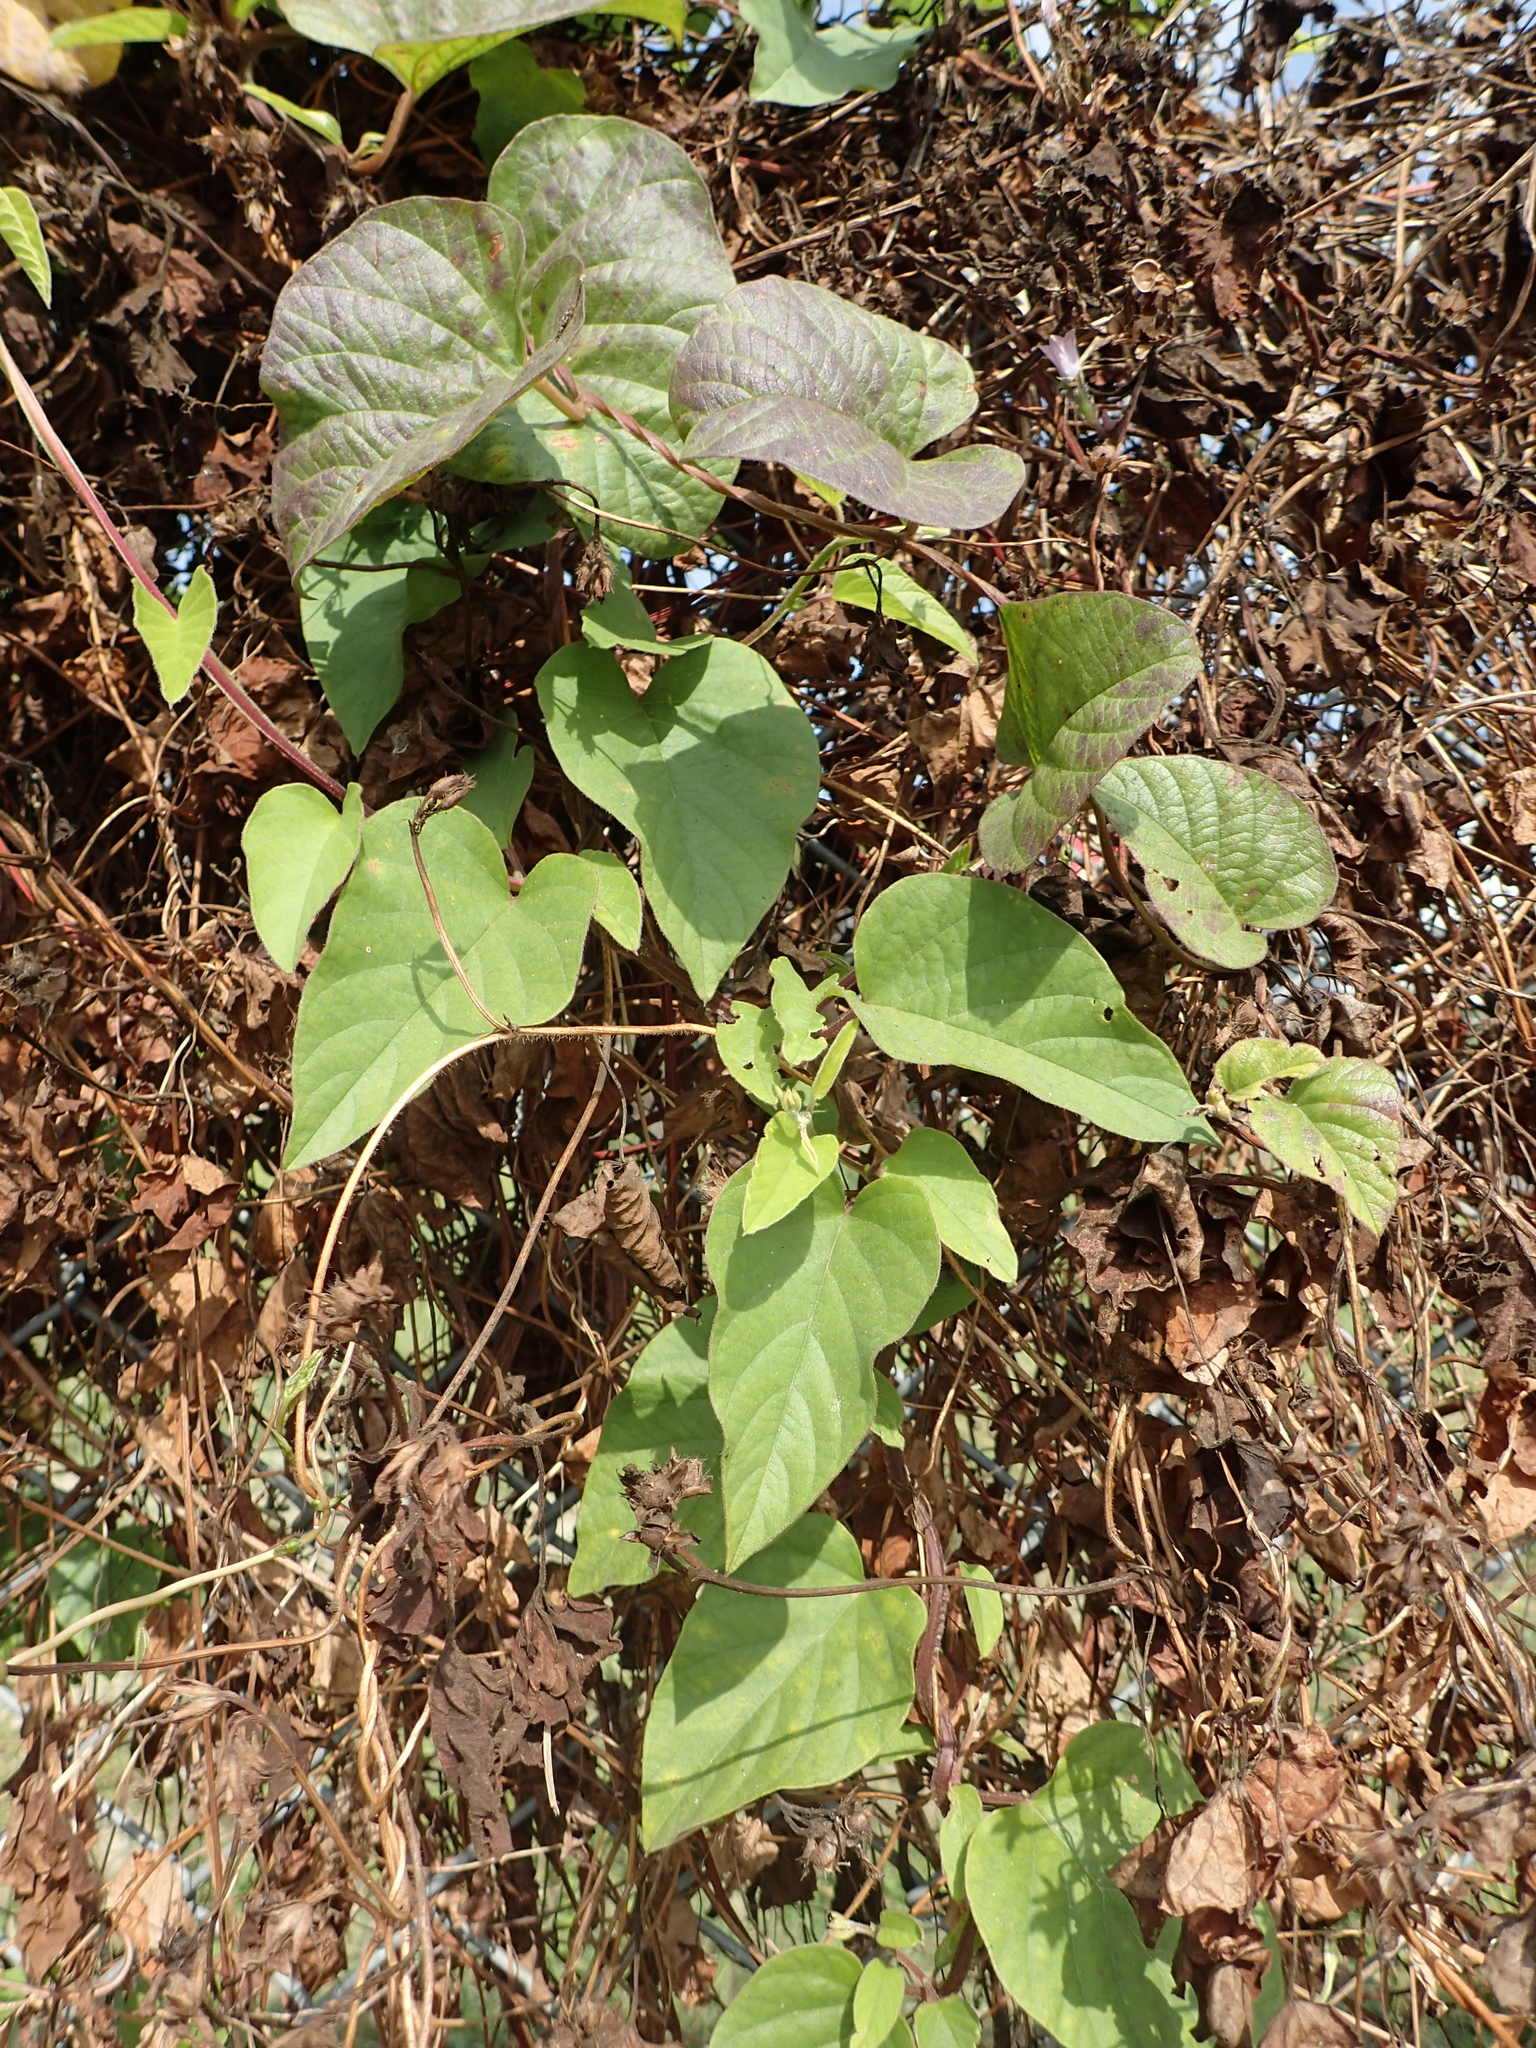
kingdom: Plantae
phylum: Tracheophyta
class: Magnoliopsida
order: Solanales
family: Convolvulaceae
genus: Operculina
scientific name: Operculina turpethum
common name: Transparent wood-rose
